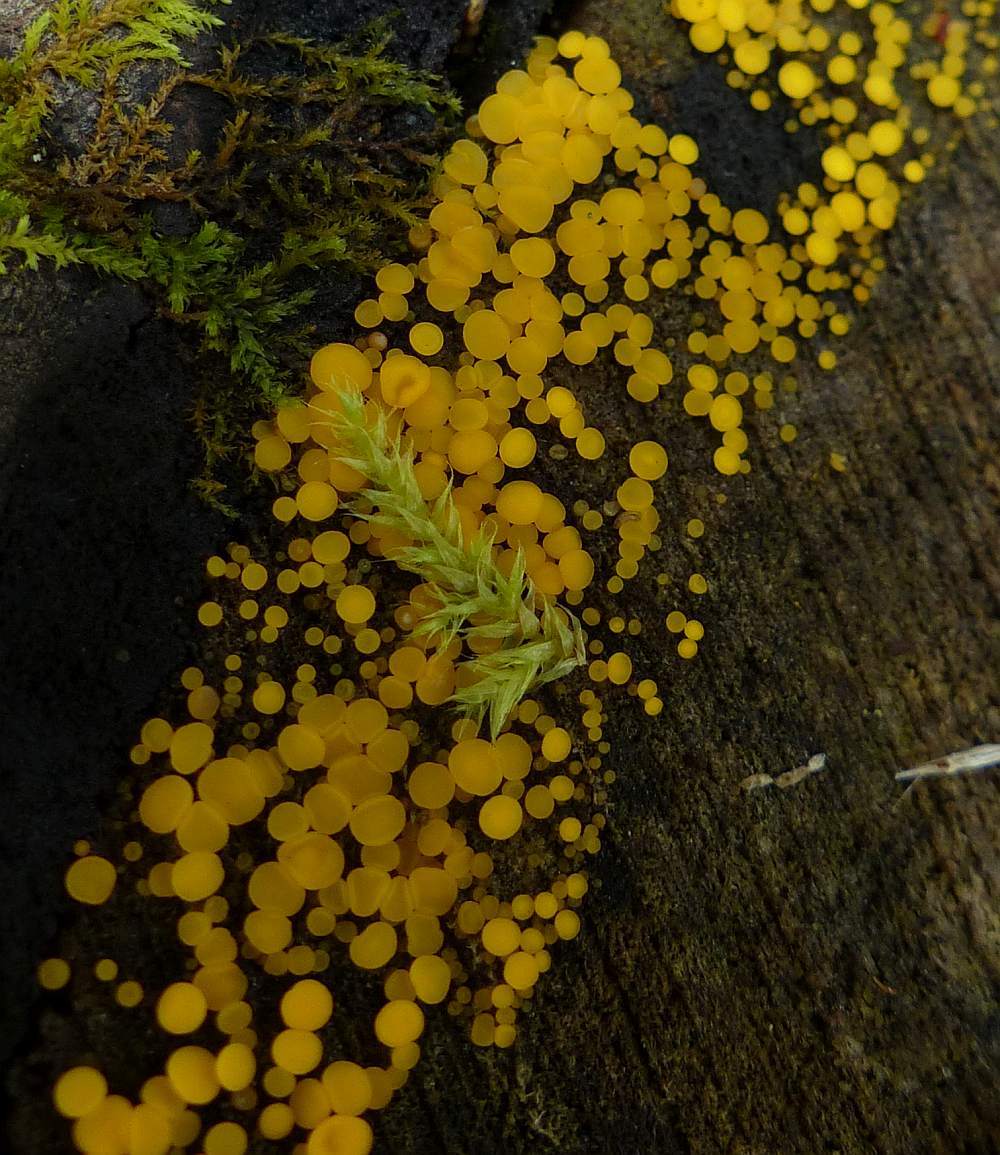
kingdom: Fungi
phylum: Ascomycota
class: Leotiomycetes
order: Helotiales
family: Pezizellaceae
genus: Calycina
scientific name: Calycina citrina
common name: Yellow fairy cups
